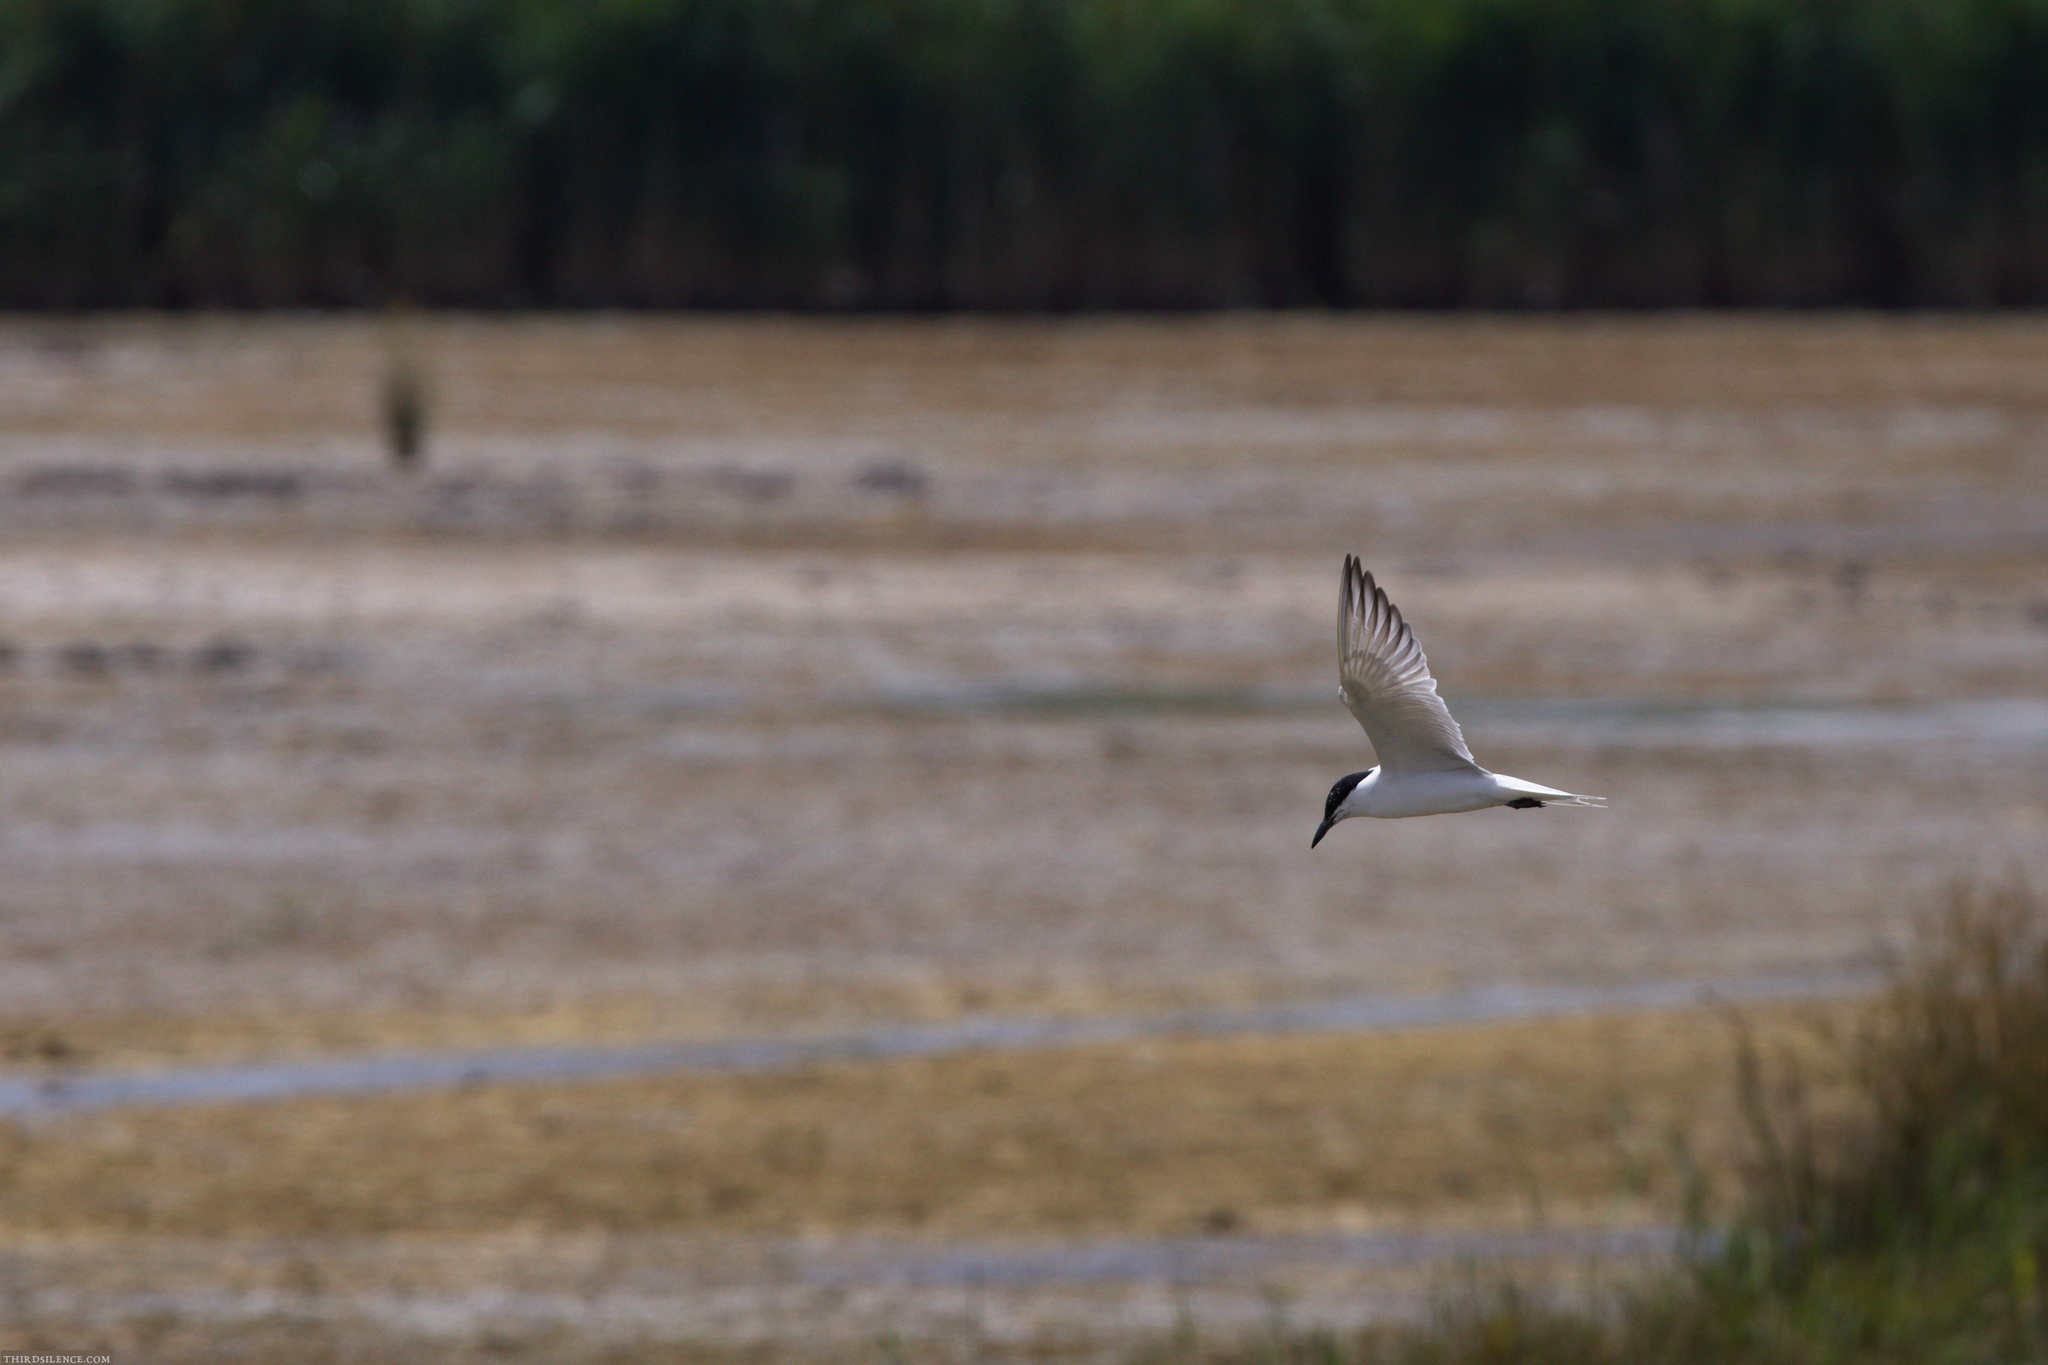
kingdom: Animalia
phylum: Chordata
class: Aves
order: Charadriiformes
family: Laridae
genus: Gelochelidon
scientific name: Gelochelidon nilotica
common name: Gull-billed tern
